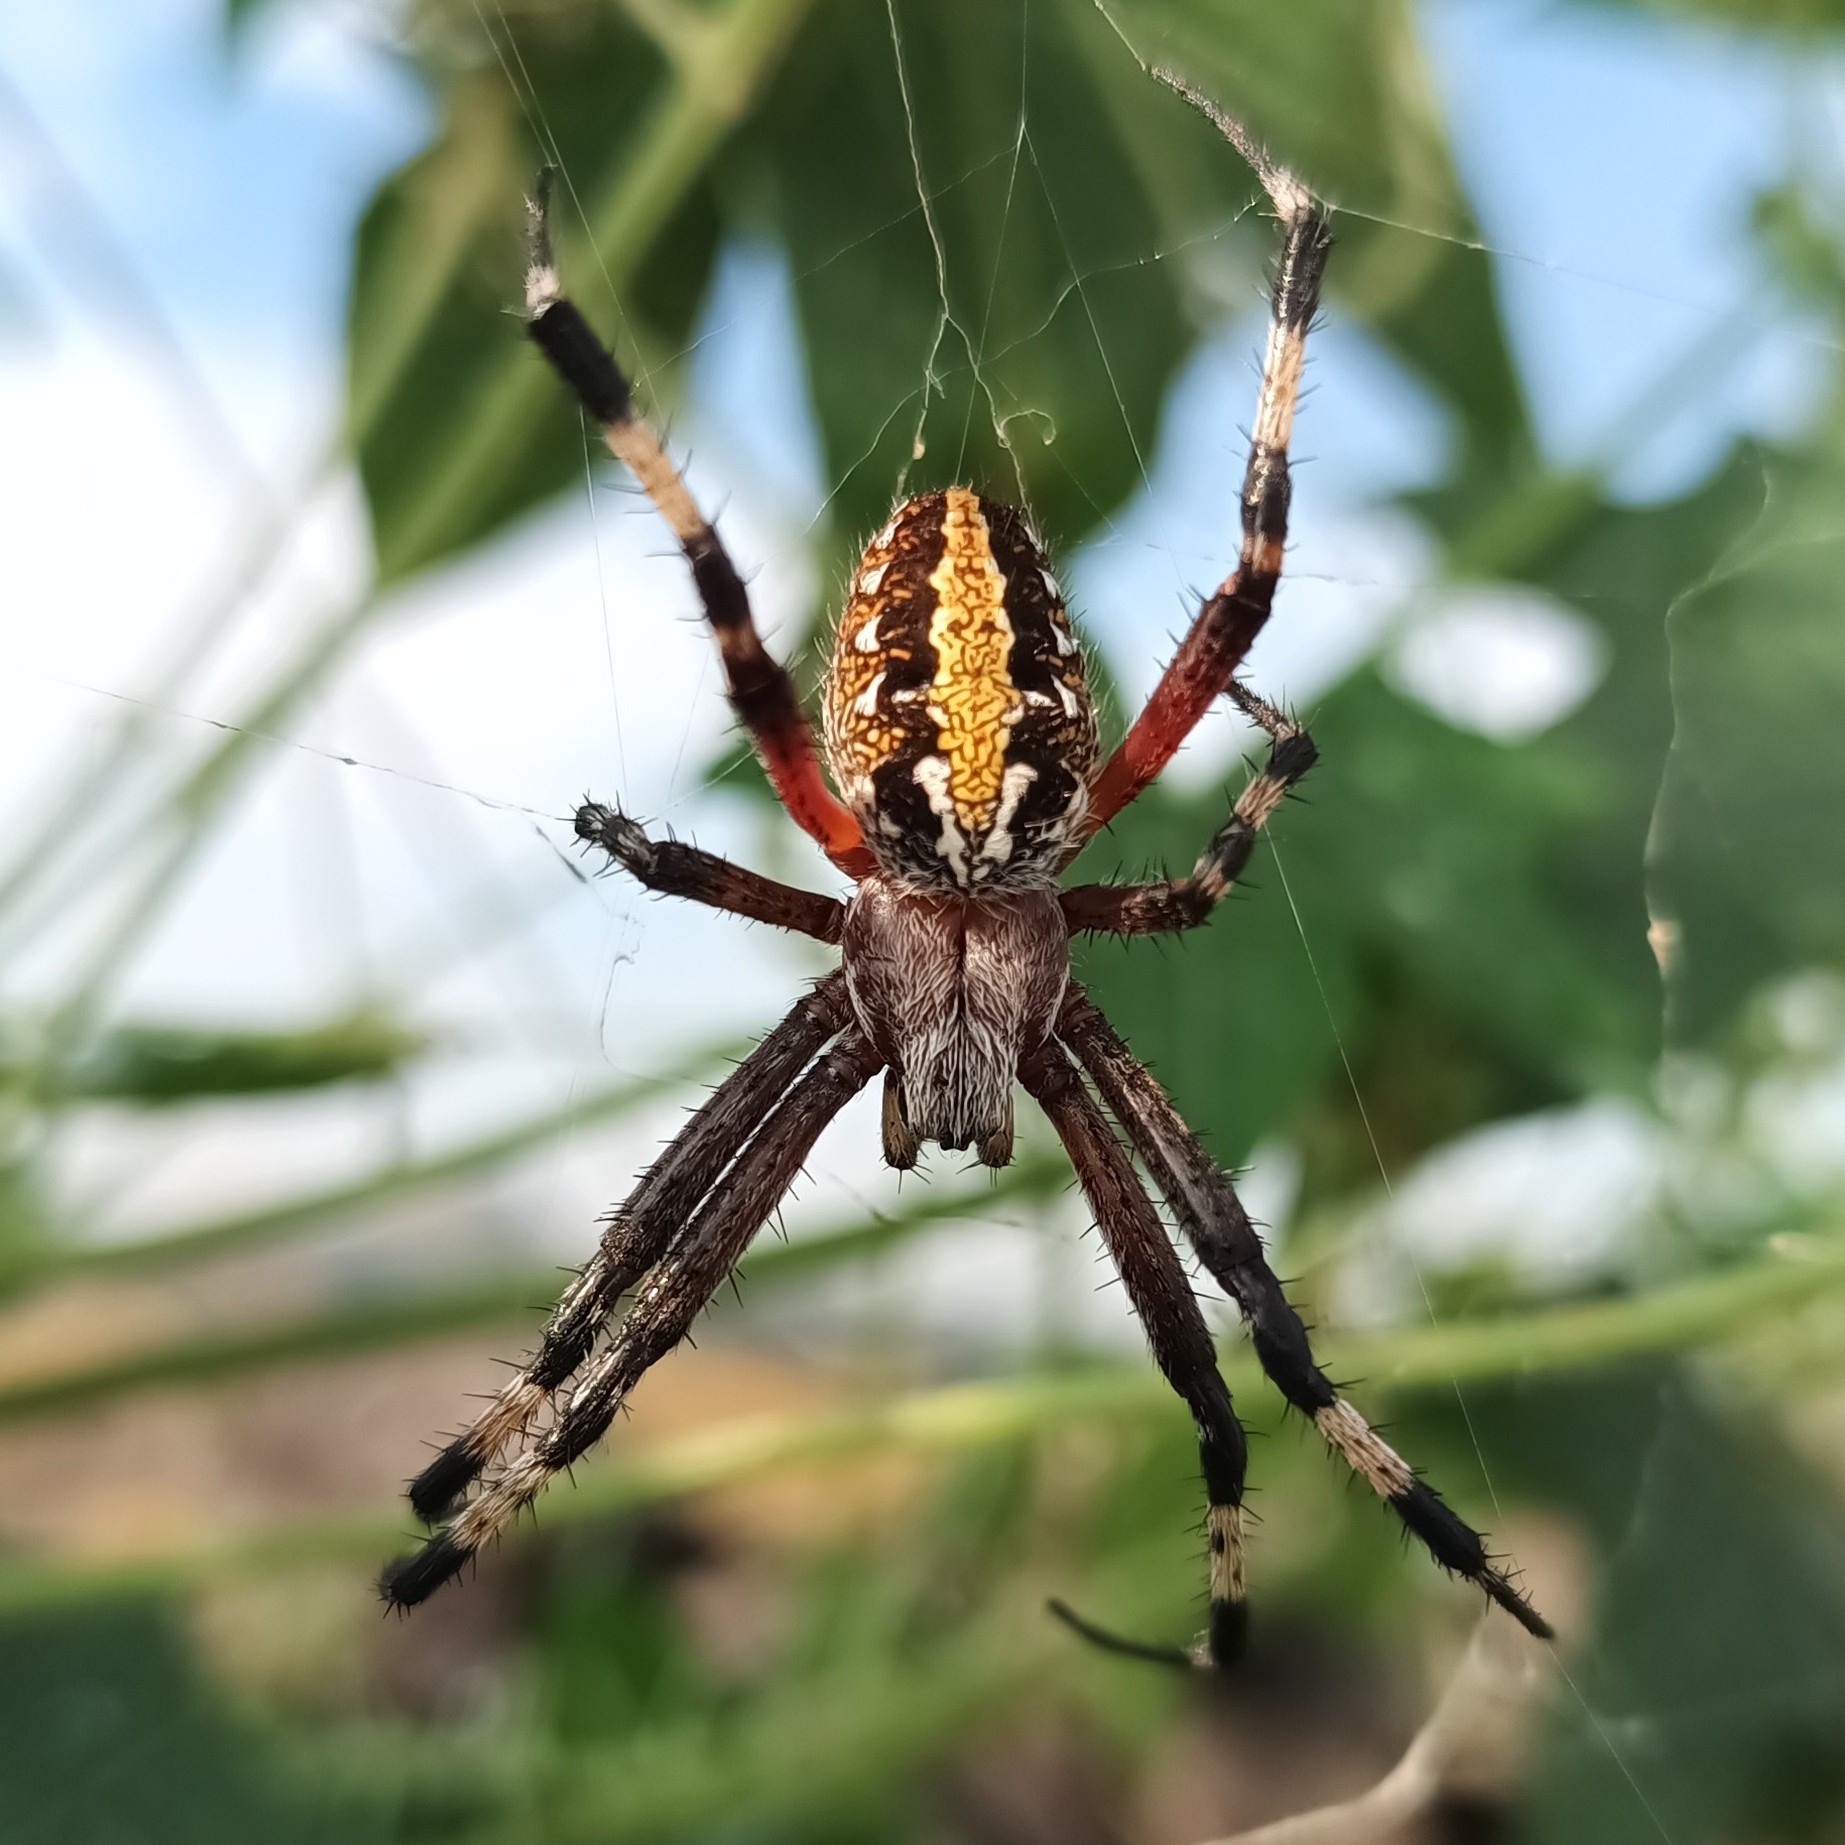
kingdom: Animalia
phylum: Arthropoda
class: Arachnida
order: Araneae
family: Araneidae
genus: Neoscona
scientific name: Neoscona oaxacensis
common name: Orb weavers
